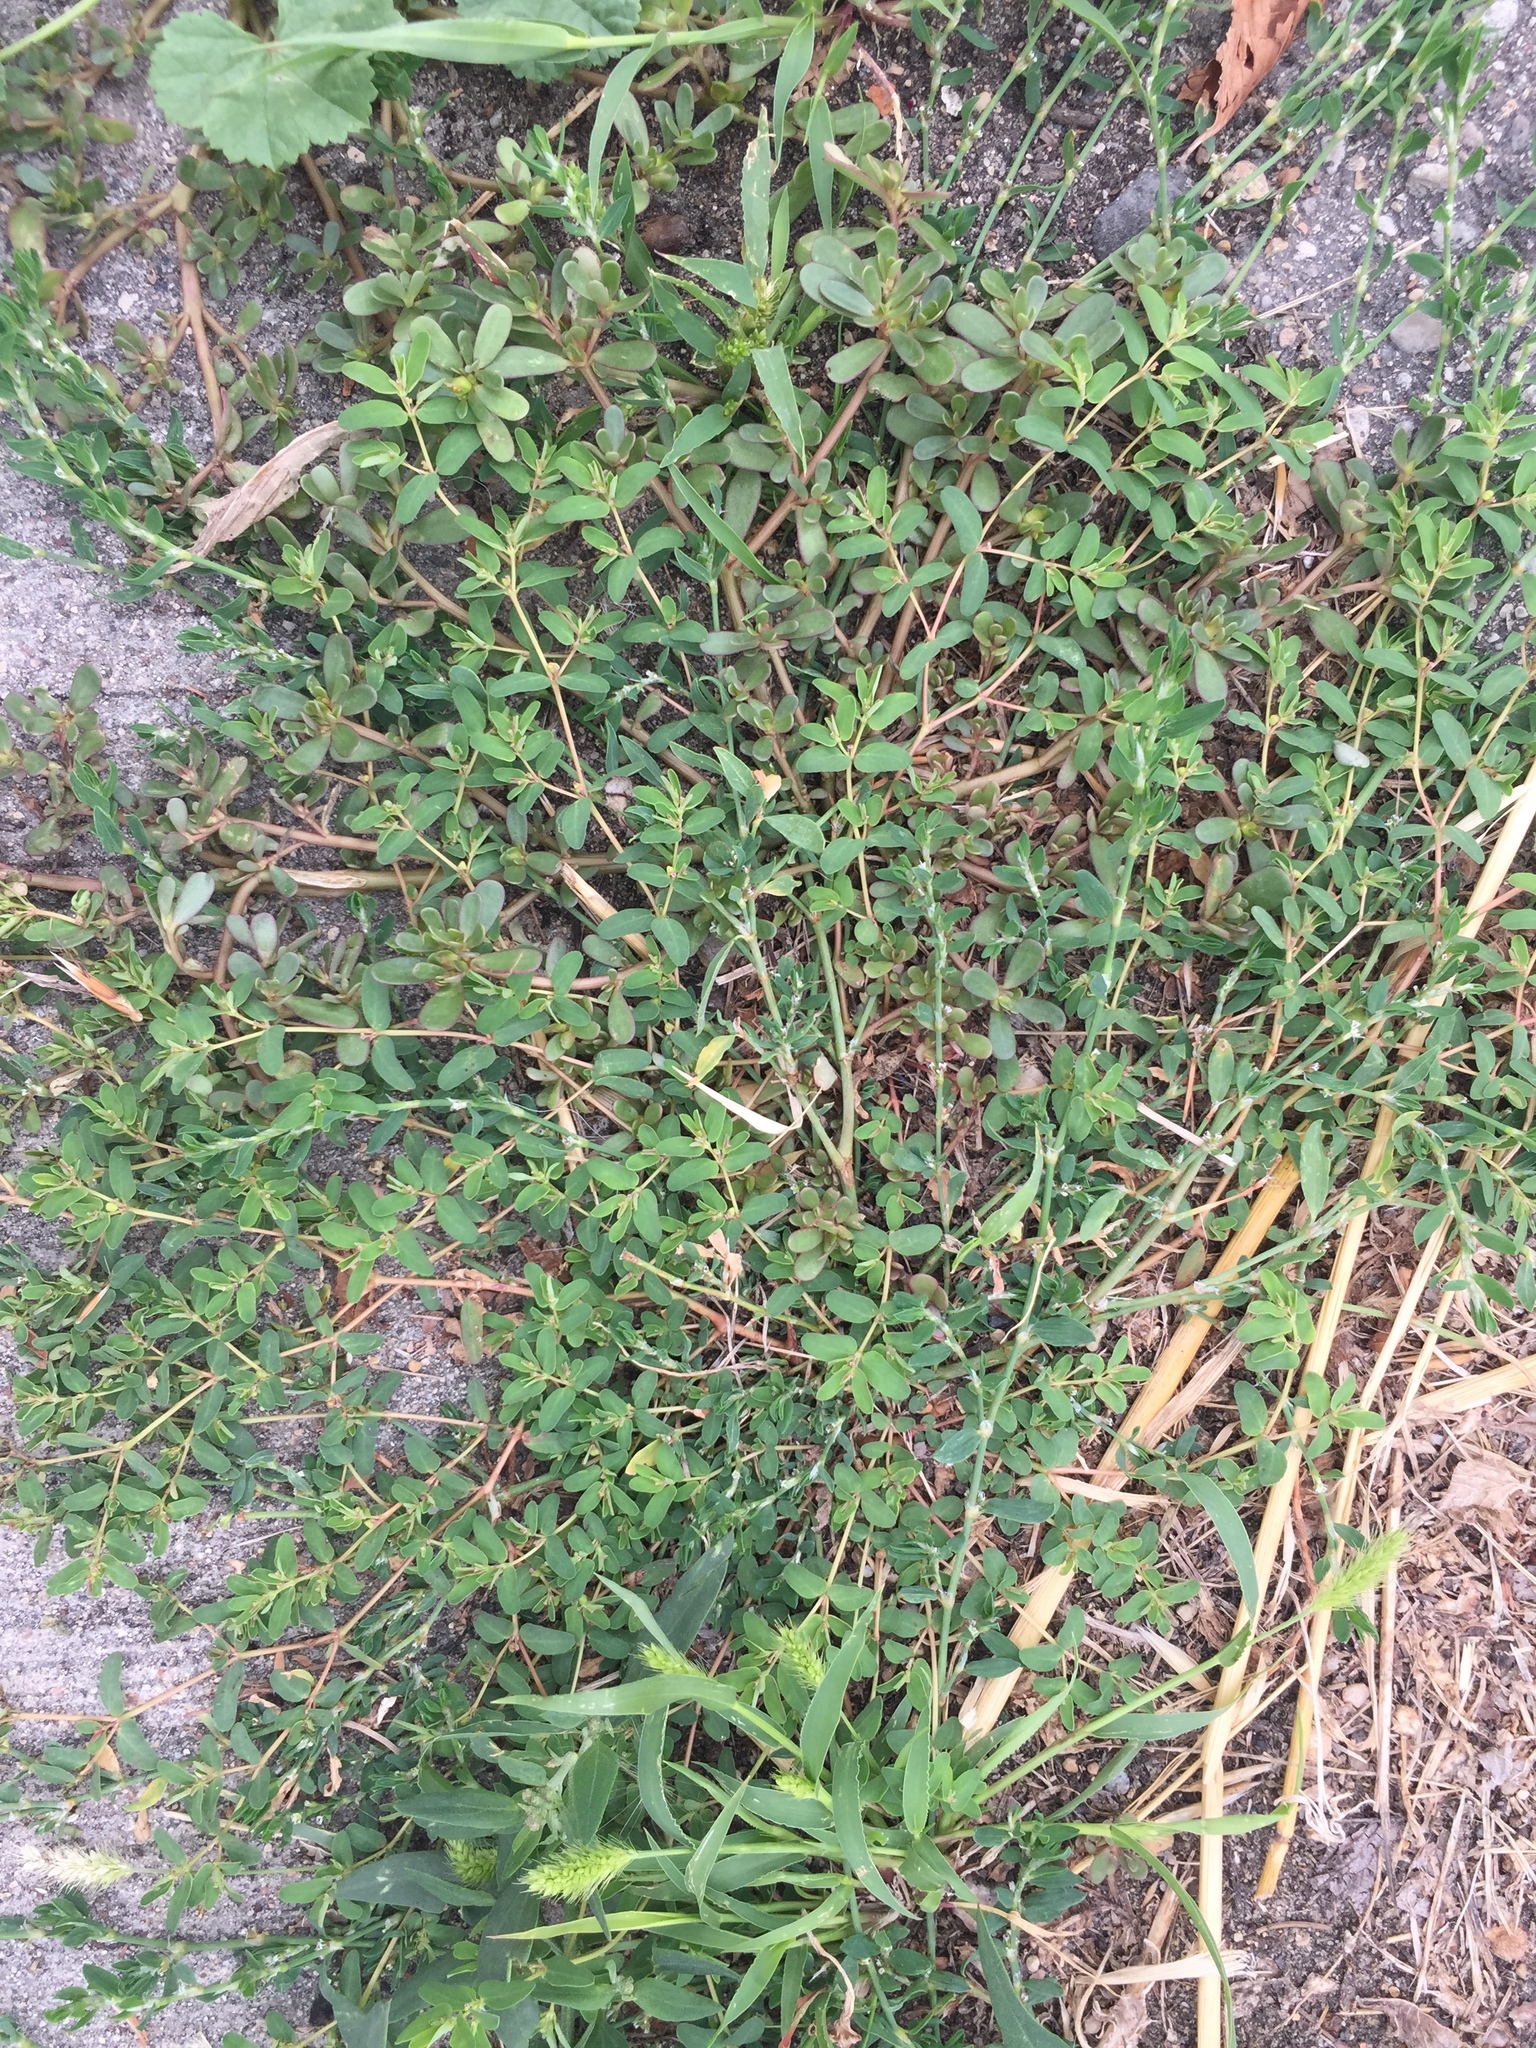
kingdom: Plantae
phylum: Tracheophyta
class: Magnoliopsida
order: Malpighiales
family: Euphorbiaceae
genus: Euphorbia
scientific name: Euphorbia glyptosperma
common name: Corrugate-seeded spurge
